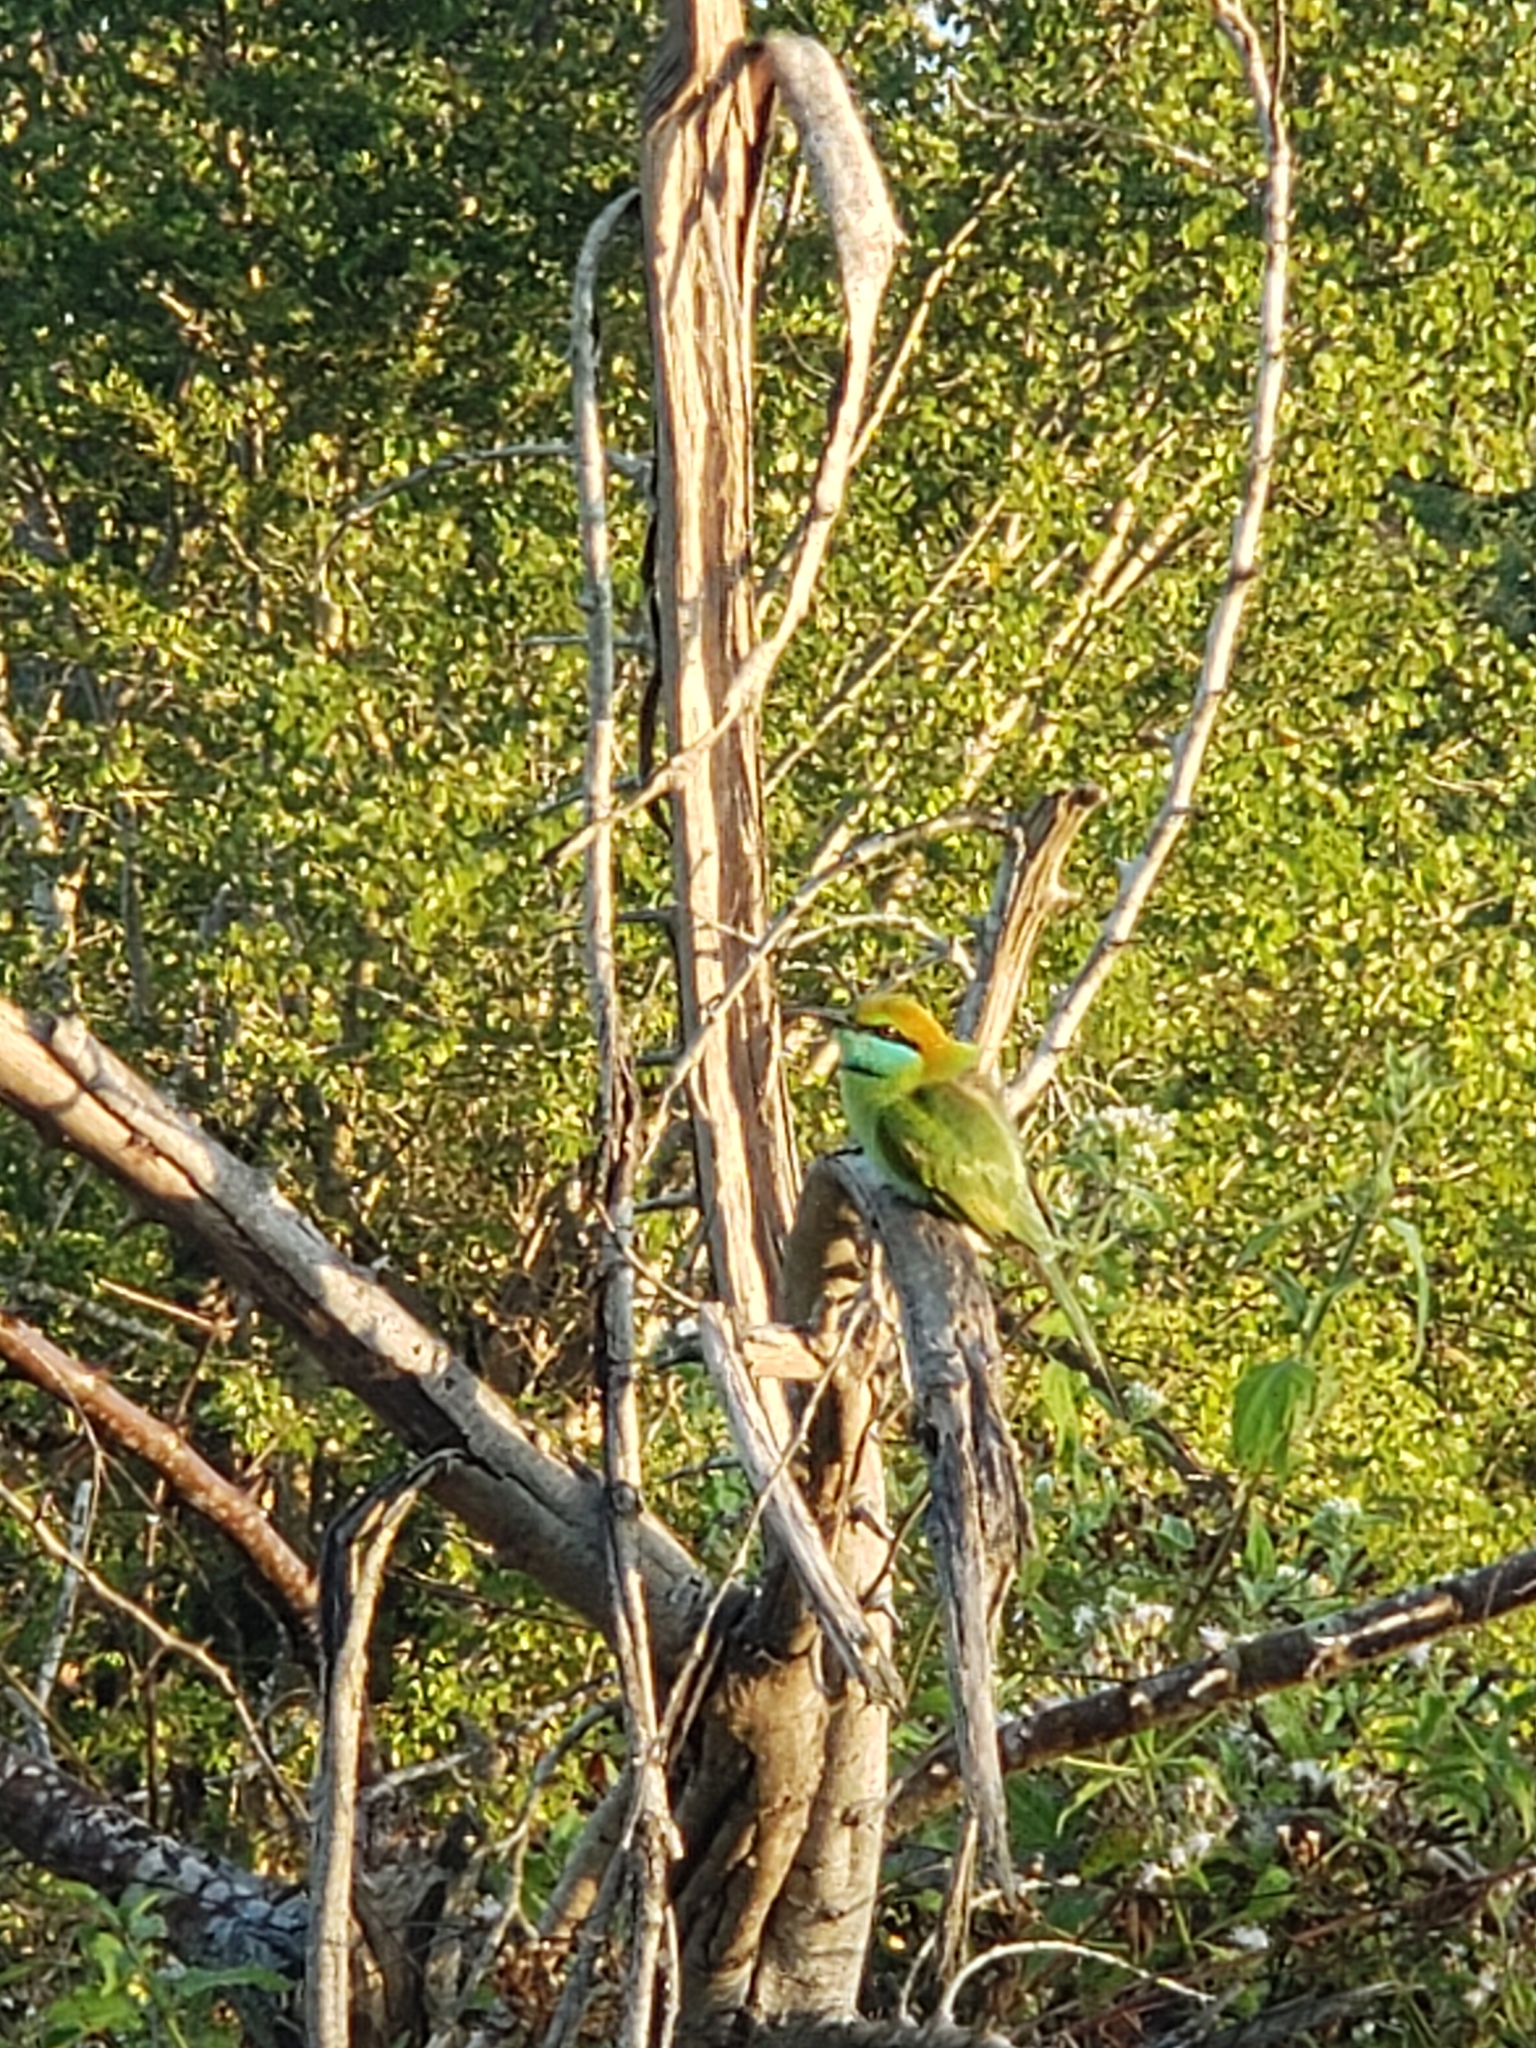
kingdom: Animalia
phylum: Chordata
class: Aves
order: Coraciiformes
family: Meropidae
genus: Merops
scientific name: Merops orientalis
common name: Green bee-eater
